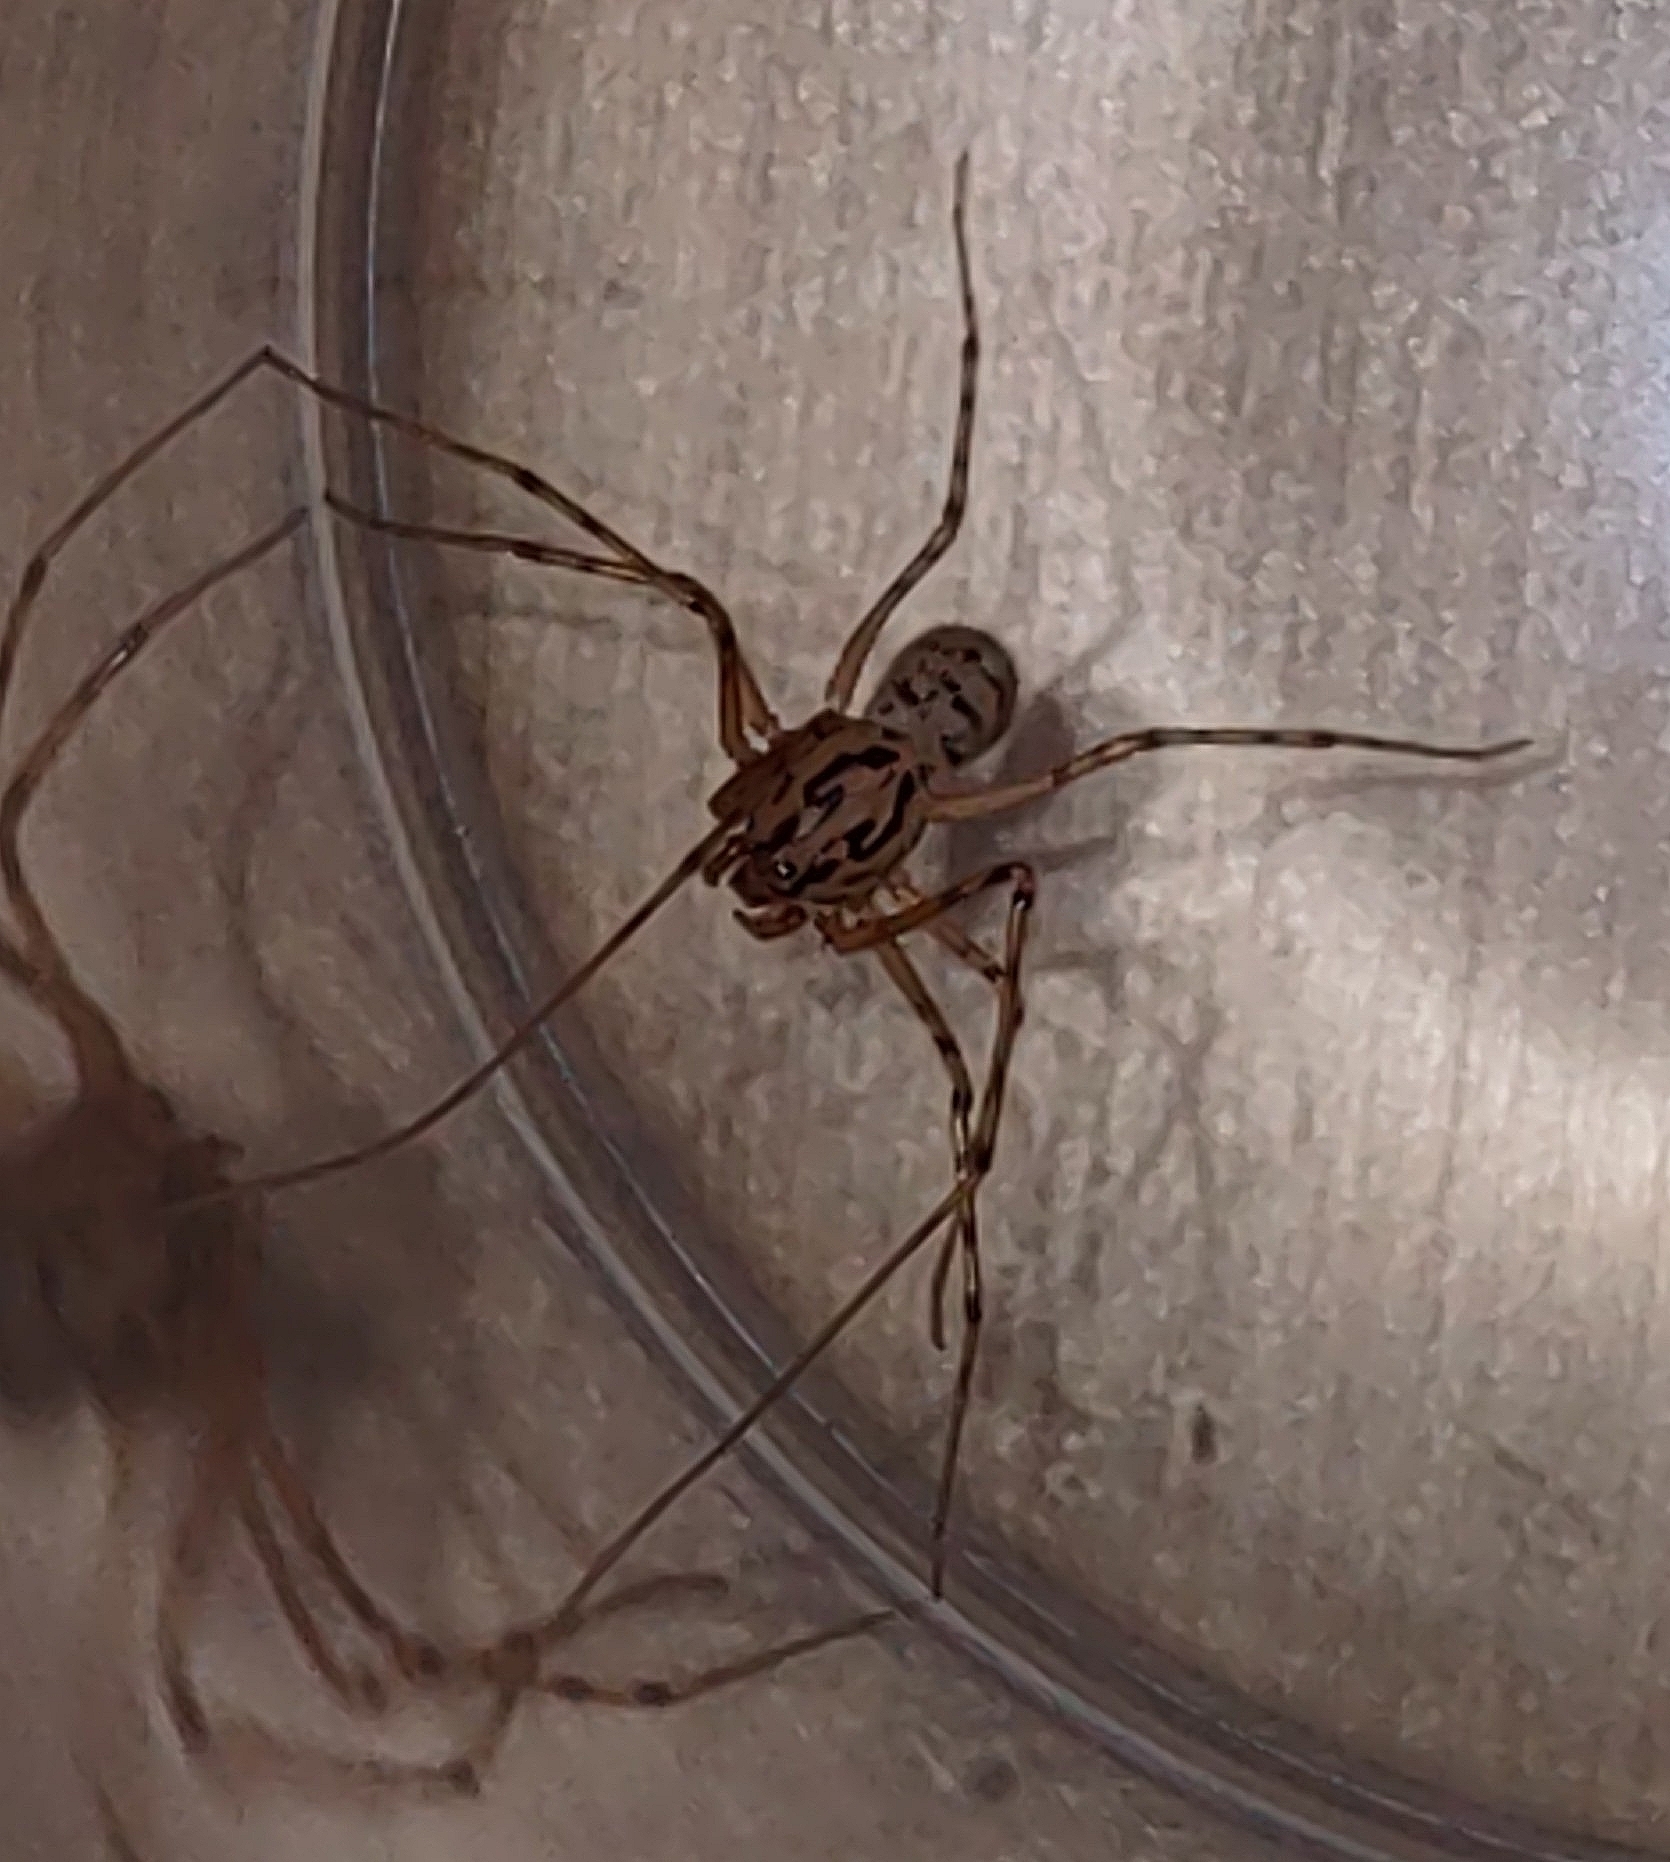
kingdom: Animalia
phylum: Arthropoda
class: Arachnida
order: Araneae
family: Scytodidae
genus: Scytodes
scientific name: Scytodes thoracica
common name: Spitting spider
